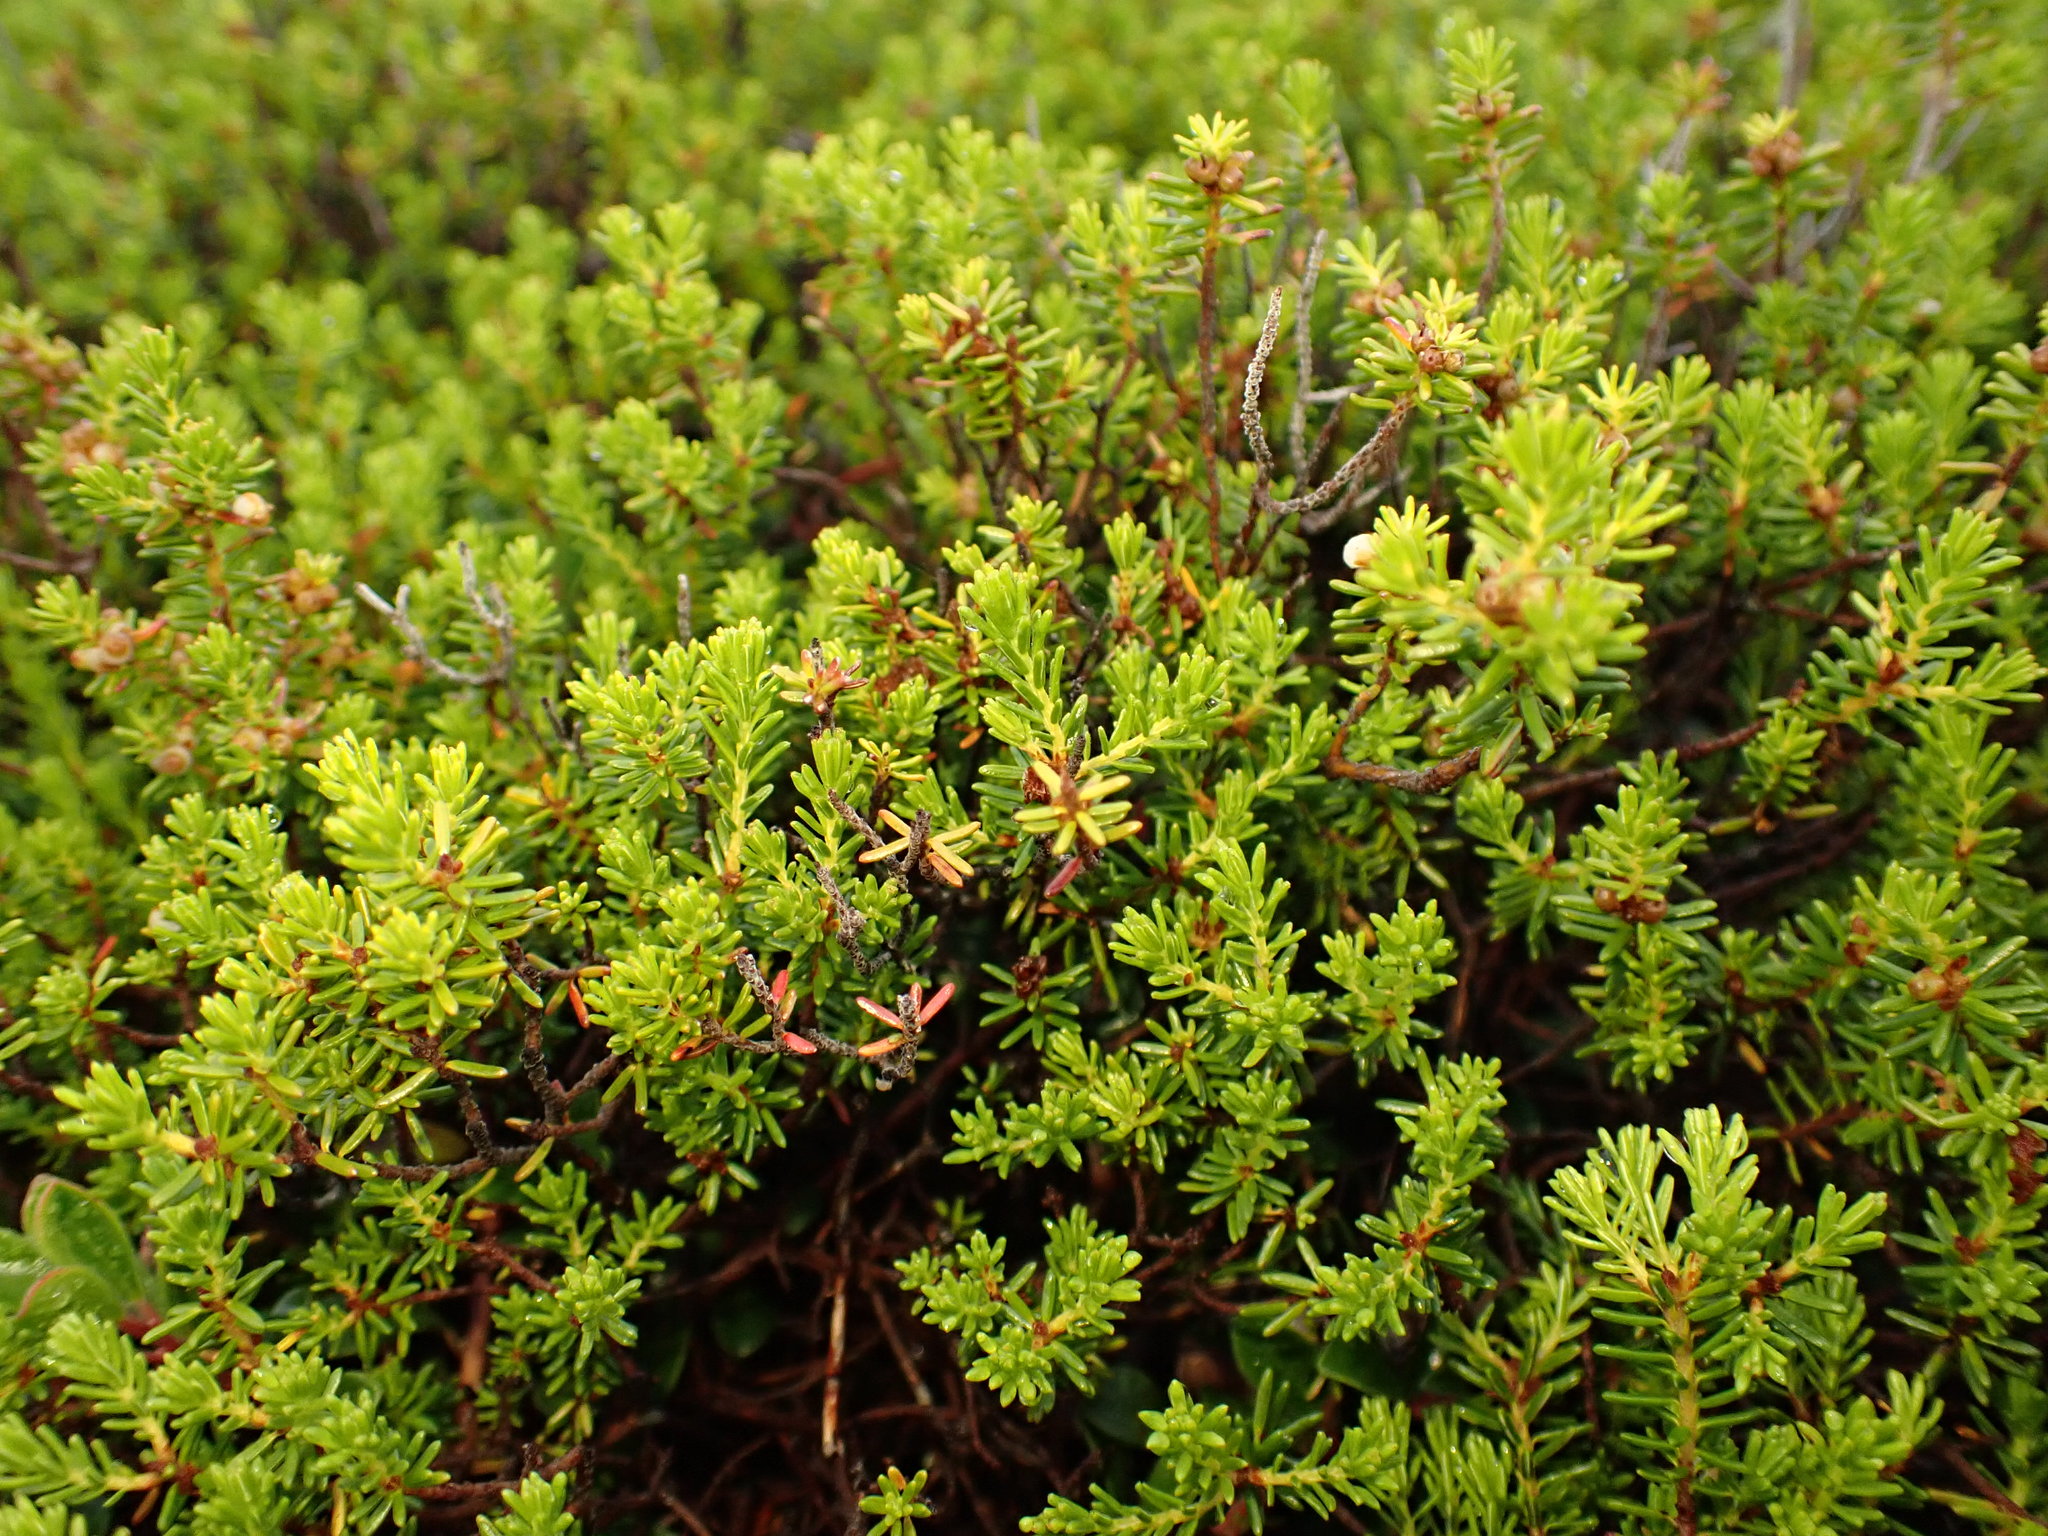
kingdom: Plantae
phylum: Tracheophyta
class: Magnoliopsida
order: Ericales
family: Ericaceae
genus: Corema
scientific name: Corema conradii
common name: Broom-crowberry
